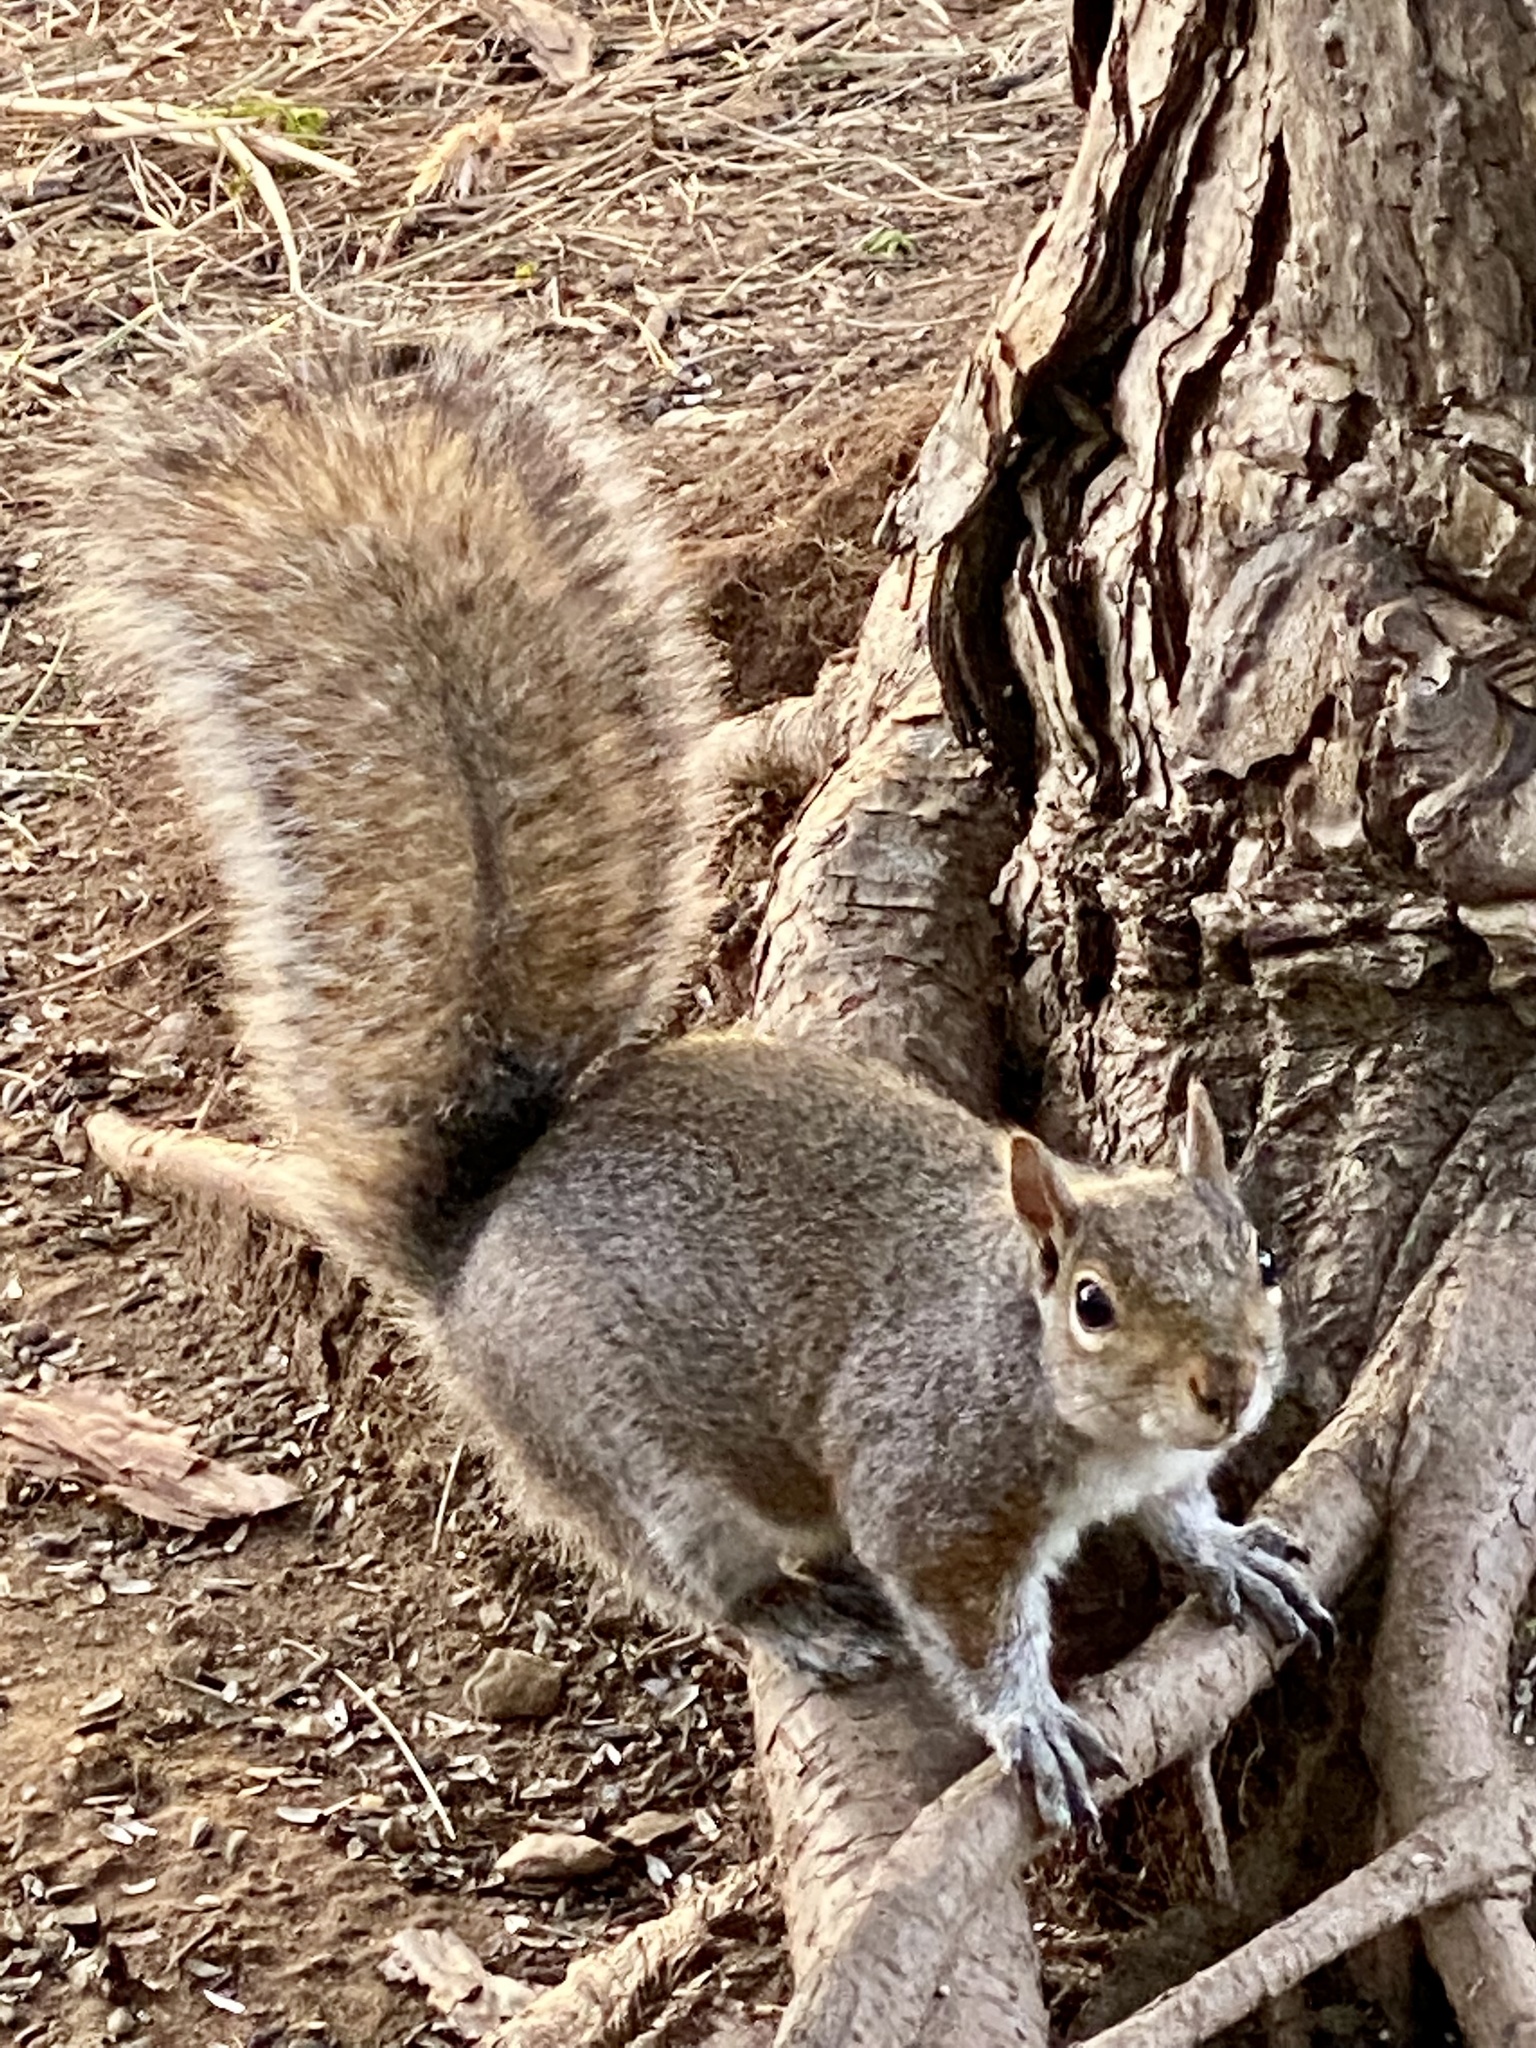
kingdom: Animalia
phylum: Chordata
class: Mammalia
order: Rodentia
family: Sciuridae
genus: Sciurus
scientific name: Sciurus carolinensis
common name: Eastern gray squirrel
